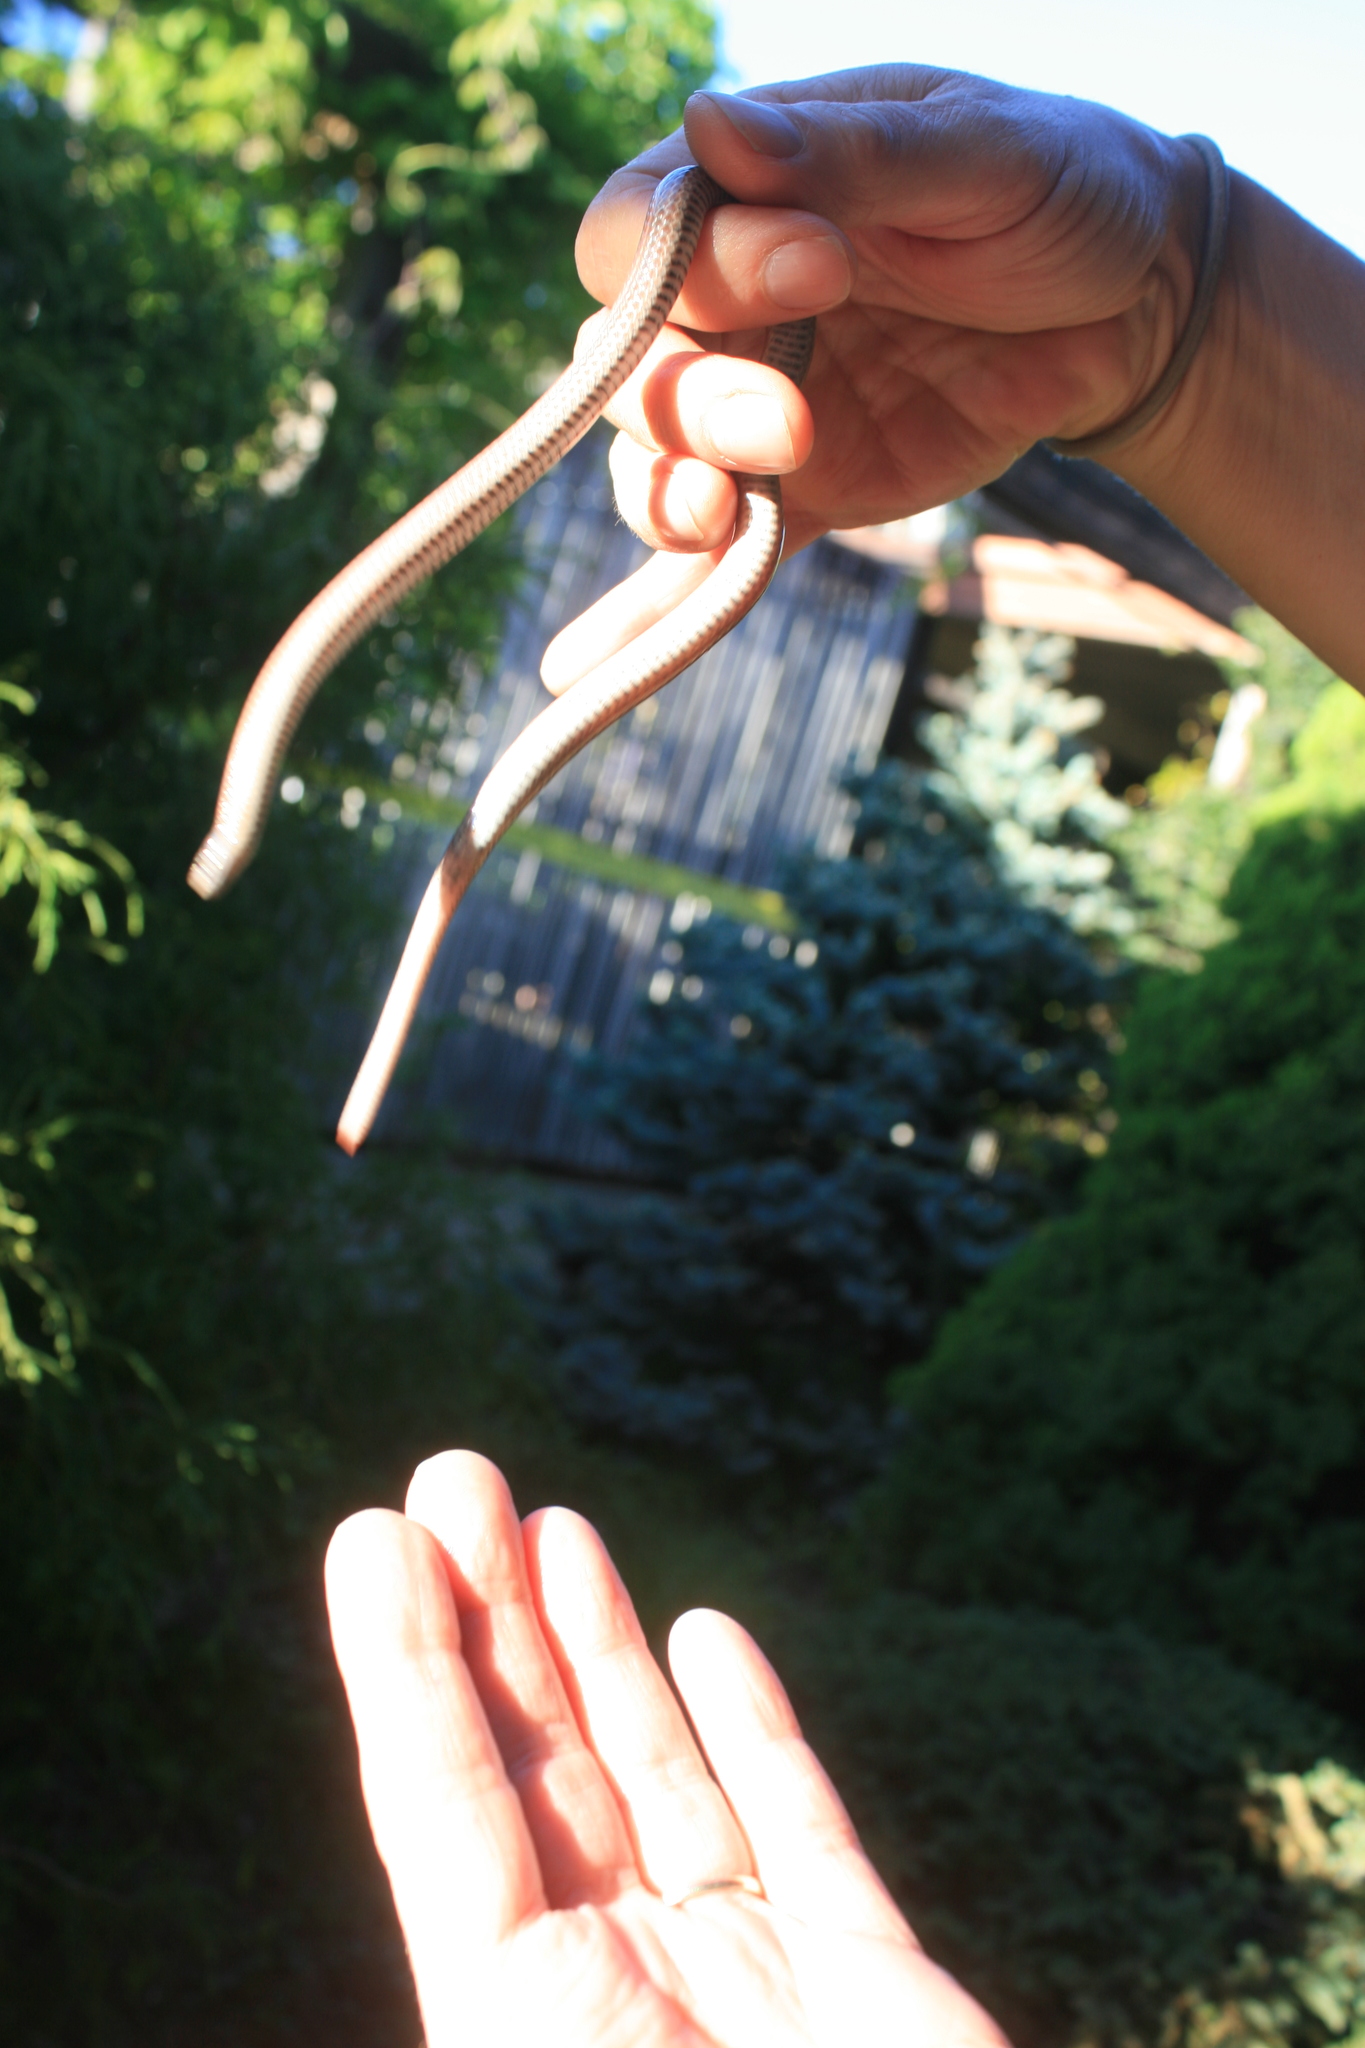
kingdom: Animalia
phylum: Chordata
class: Squamata
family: Colubridae
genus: Contia
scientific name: Contia tenuis
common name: Sharptail snake
